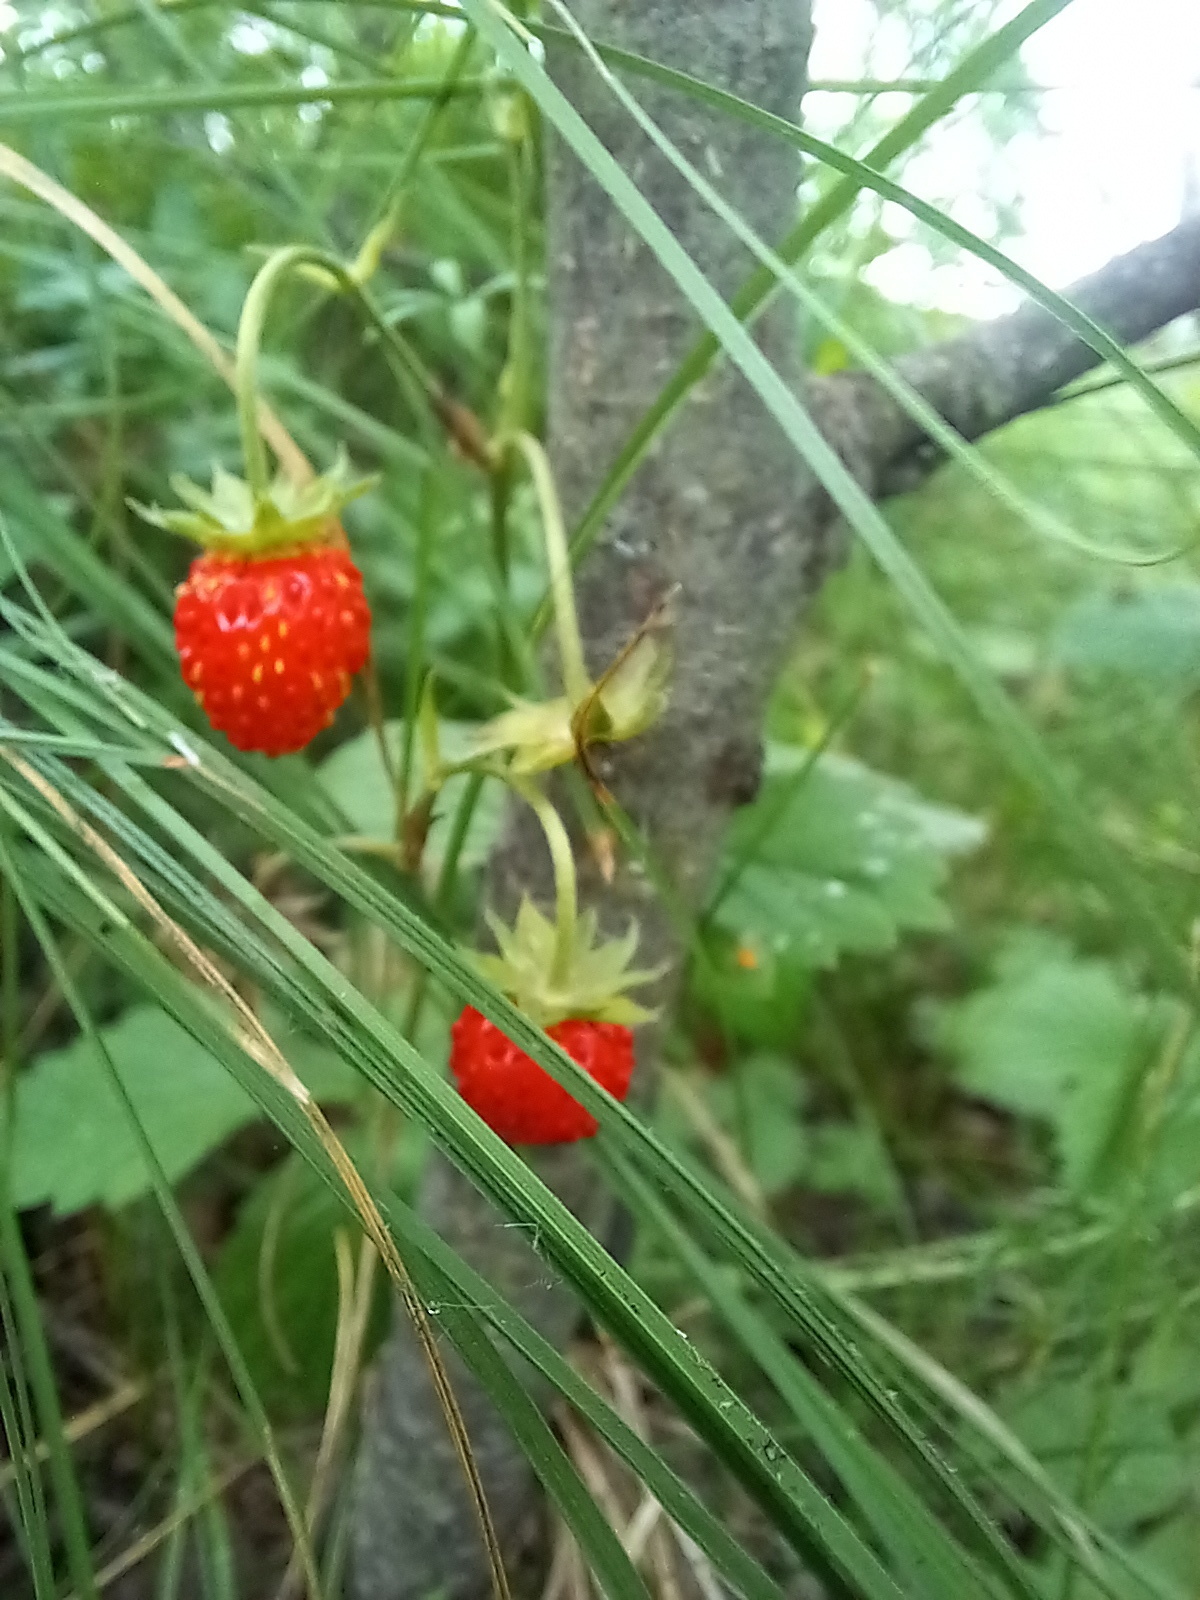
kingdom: Plantae
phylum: Tracheophyta
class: Magnoliopsida
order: Rosales
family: Rosaceae
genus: Fragaria
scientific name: Fragaria vesca
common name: Wild strawberry
